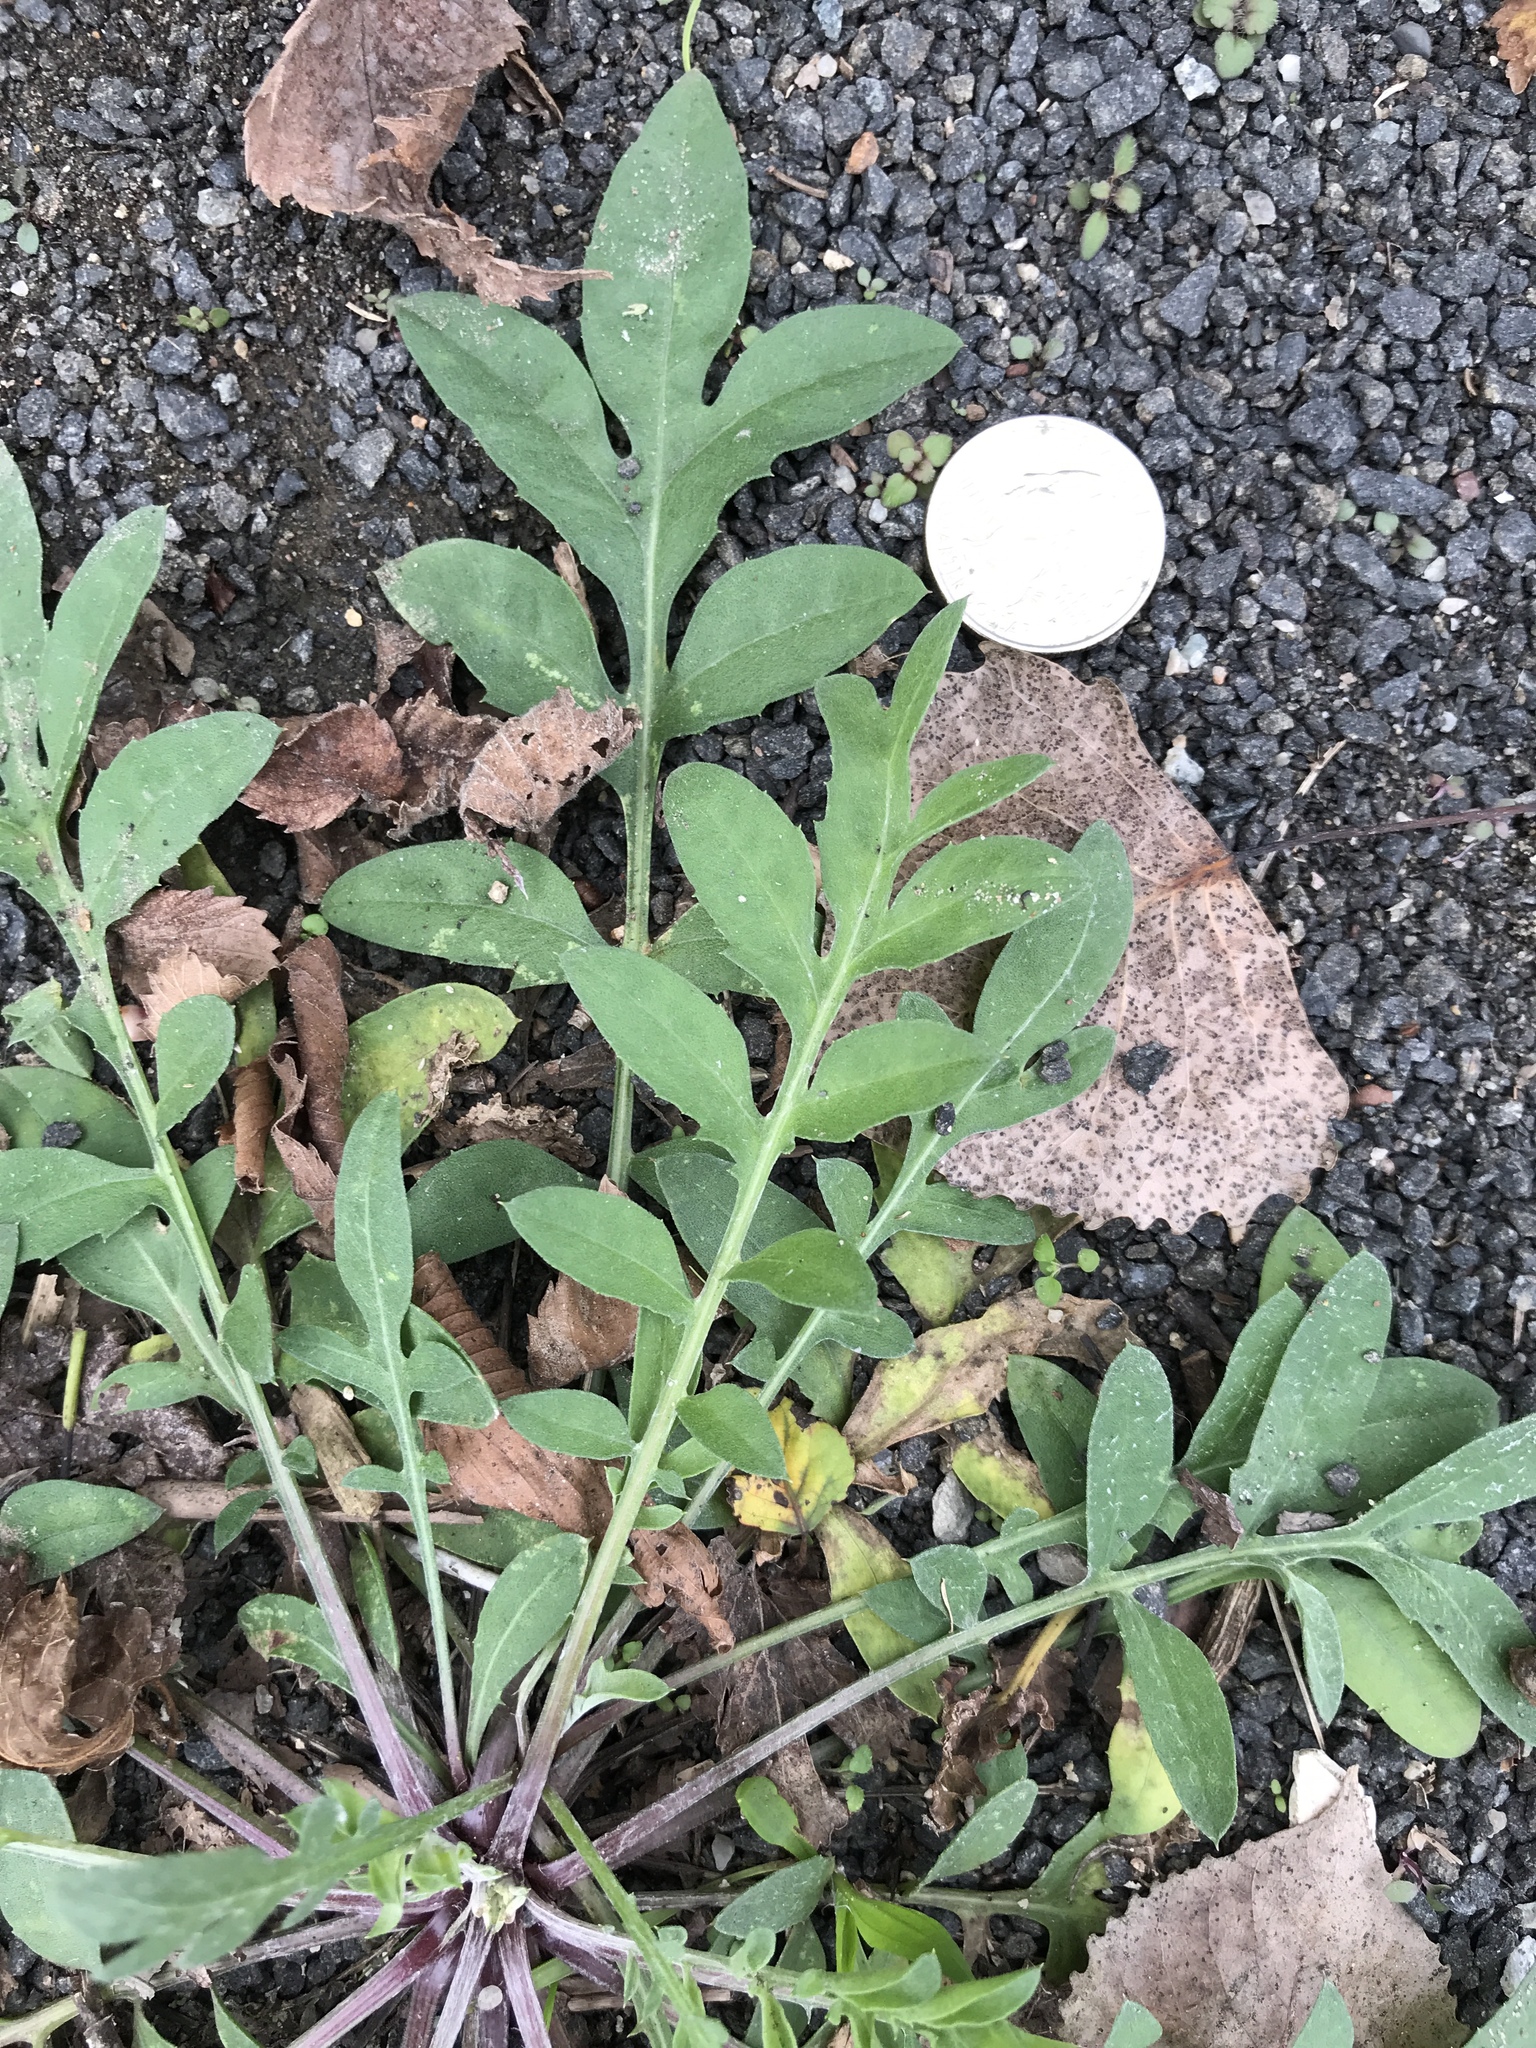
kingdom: Plantae
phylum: Tracheophyta
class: Magnoliopsida
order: Asterales
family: Asteraceae
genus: Centaurea
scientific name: Centaurea stoebe
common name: Spotted knapweed
